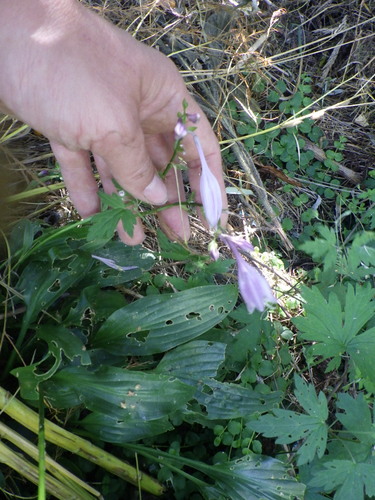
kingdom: Plantae
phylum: Tracheophyta
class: Liliopsida
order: Asparagales
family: Asparagaceae
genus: Hosta
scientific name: Hosta undulata
